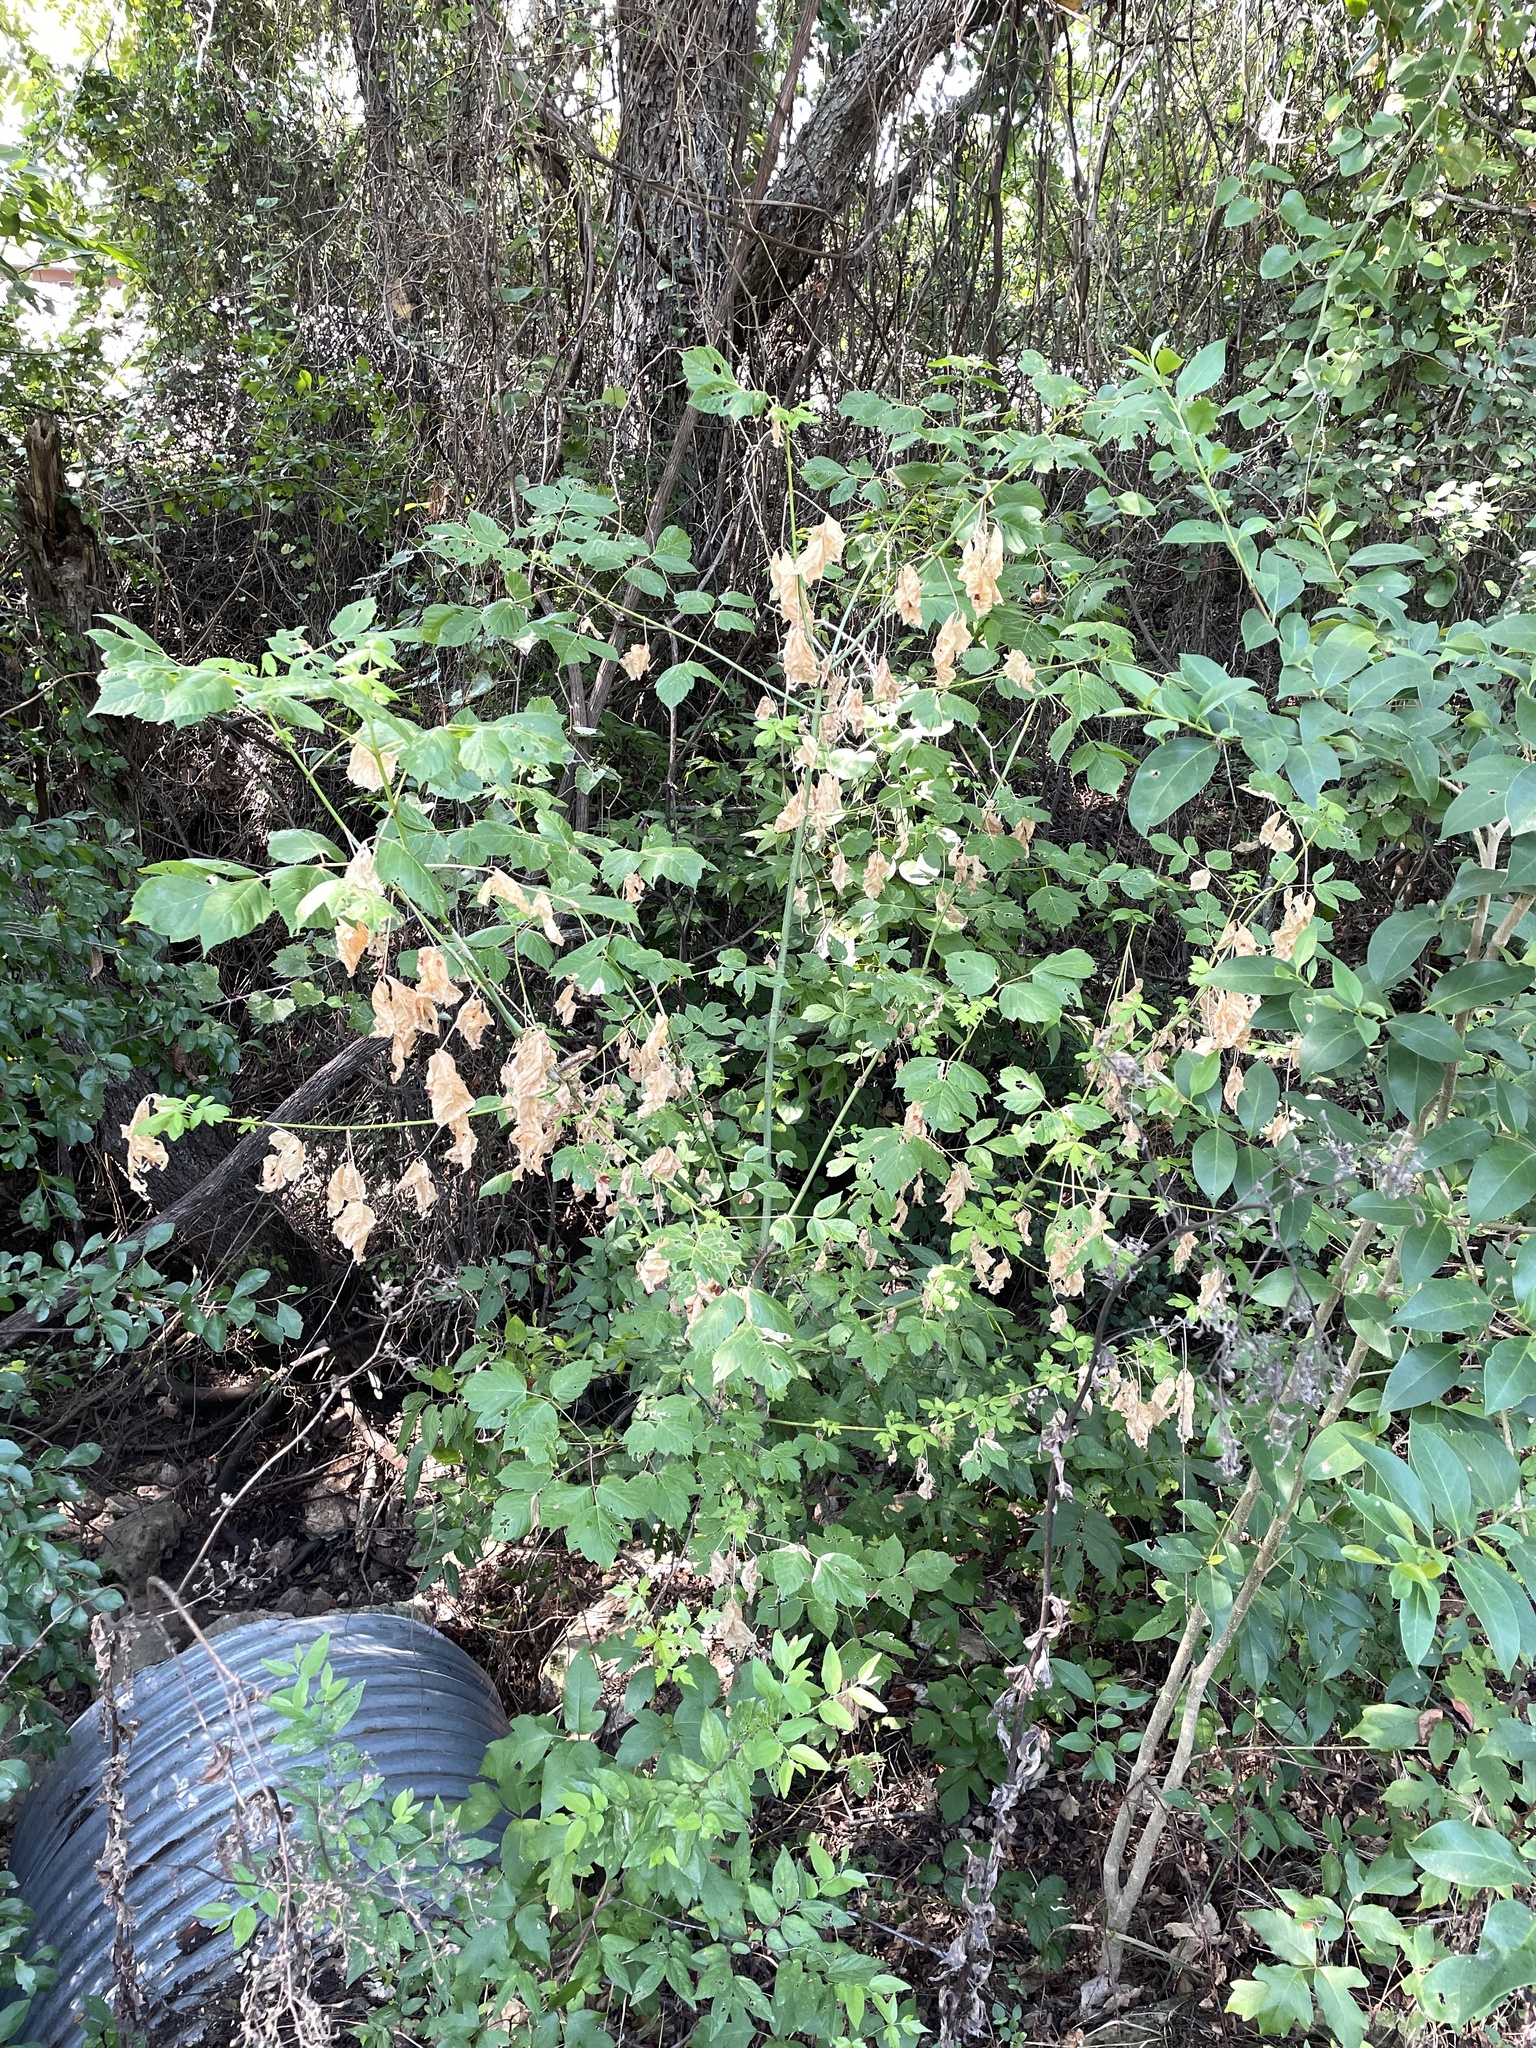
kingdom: Plantae
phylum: Tracheophyta
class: Magnoliopsida
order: Sapindales
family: Sapindaceae
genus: Acer
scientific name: Acer negundo
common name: Ashleaf maple
